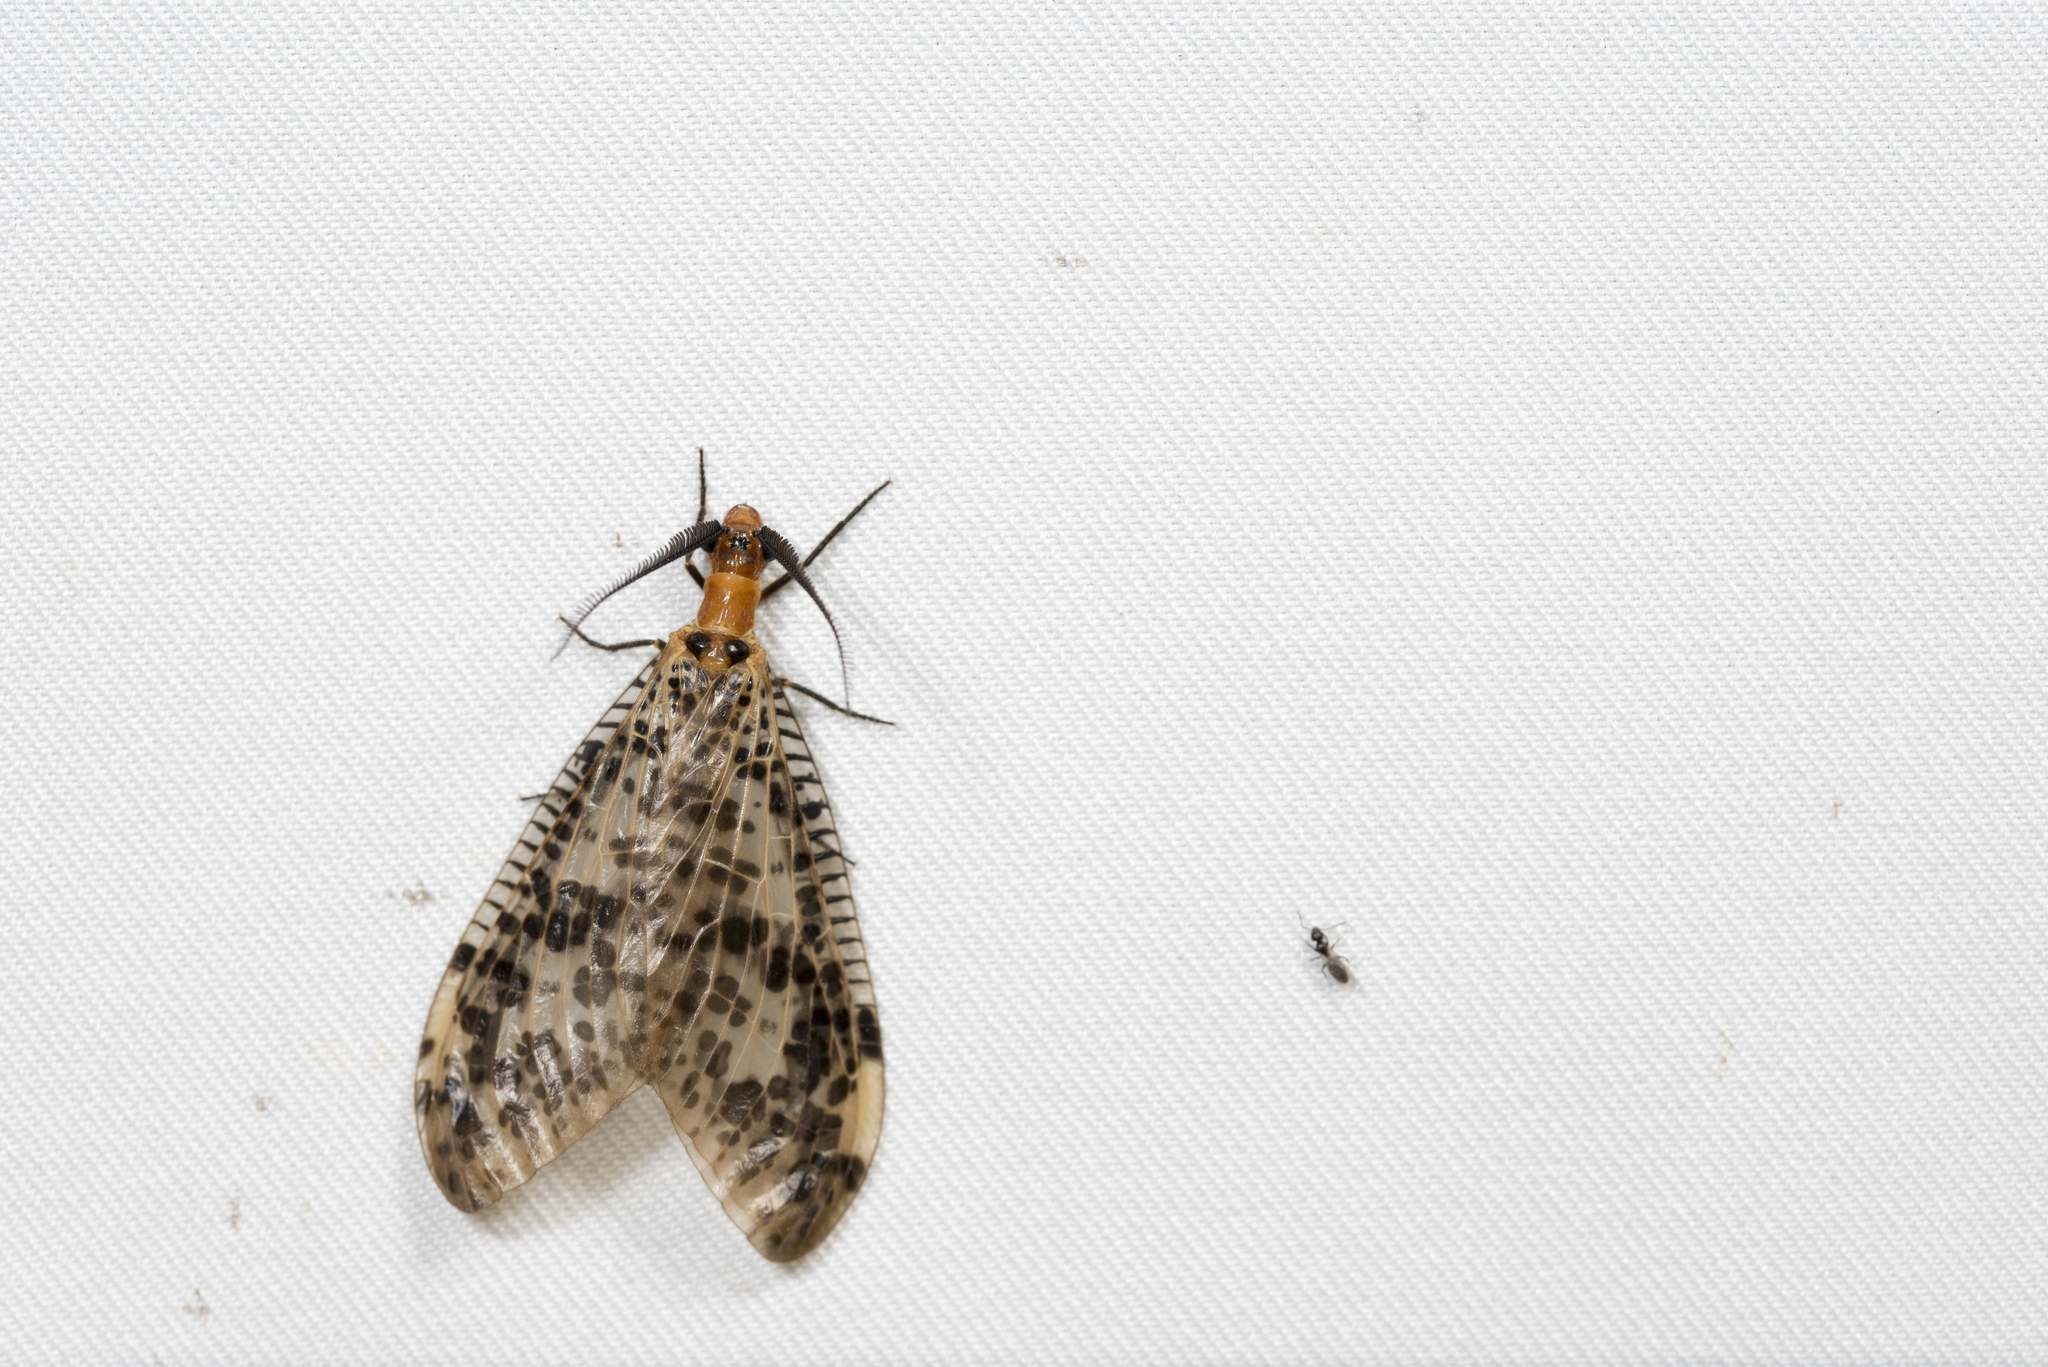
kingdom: Animalia
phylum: Arthropoda
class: Insecta
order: Megaloptera
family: Corydalidae
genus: Neochauliodes
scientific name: Neochauliodes formosanus
